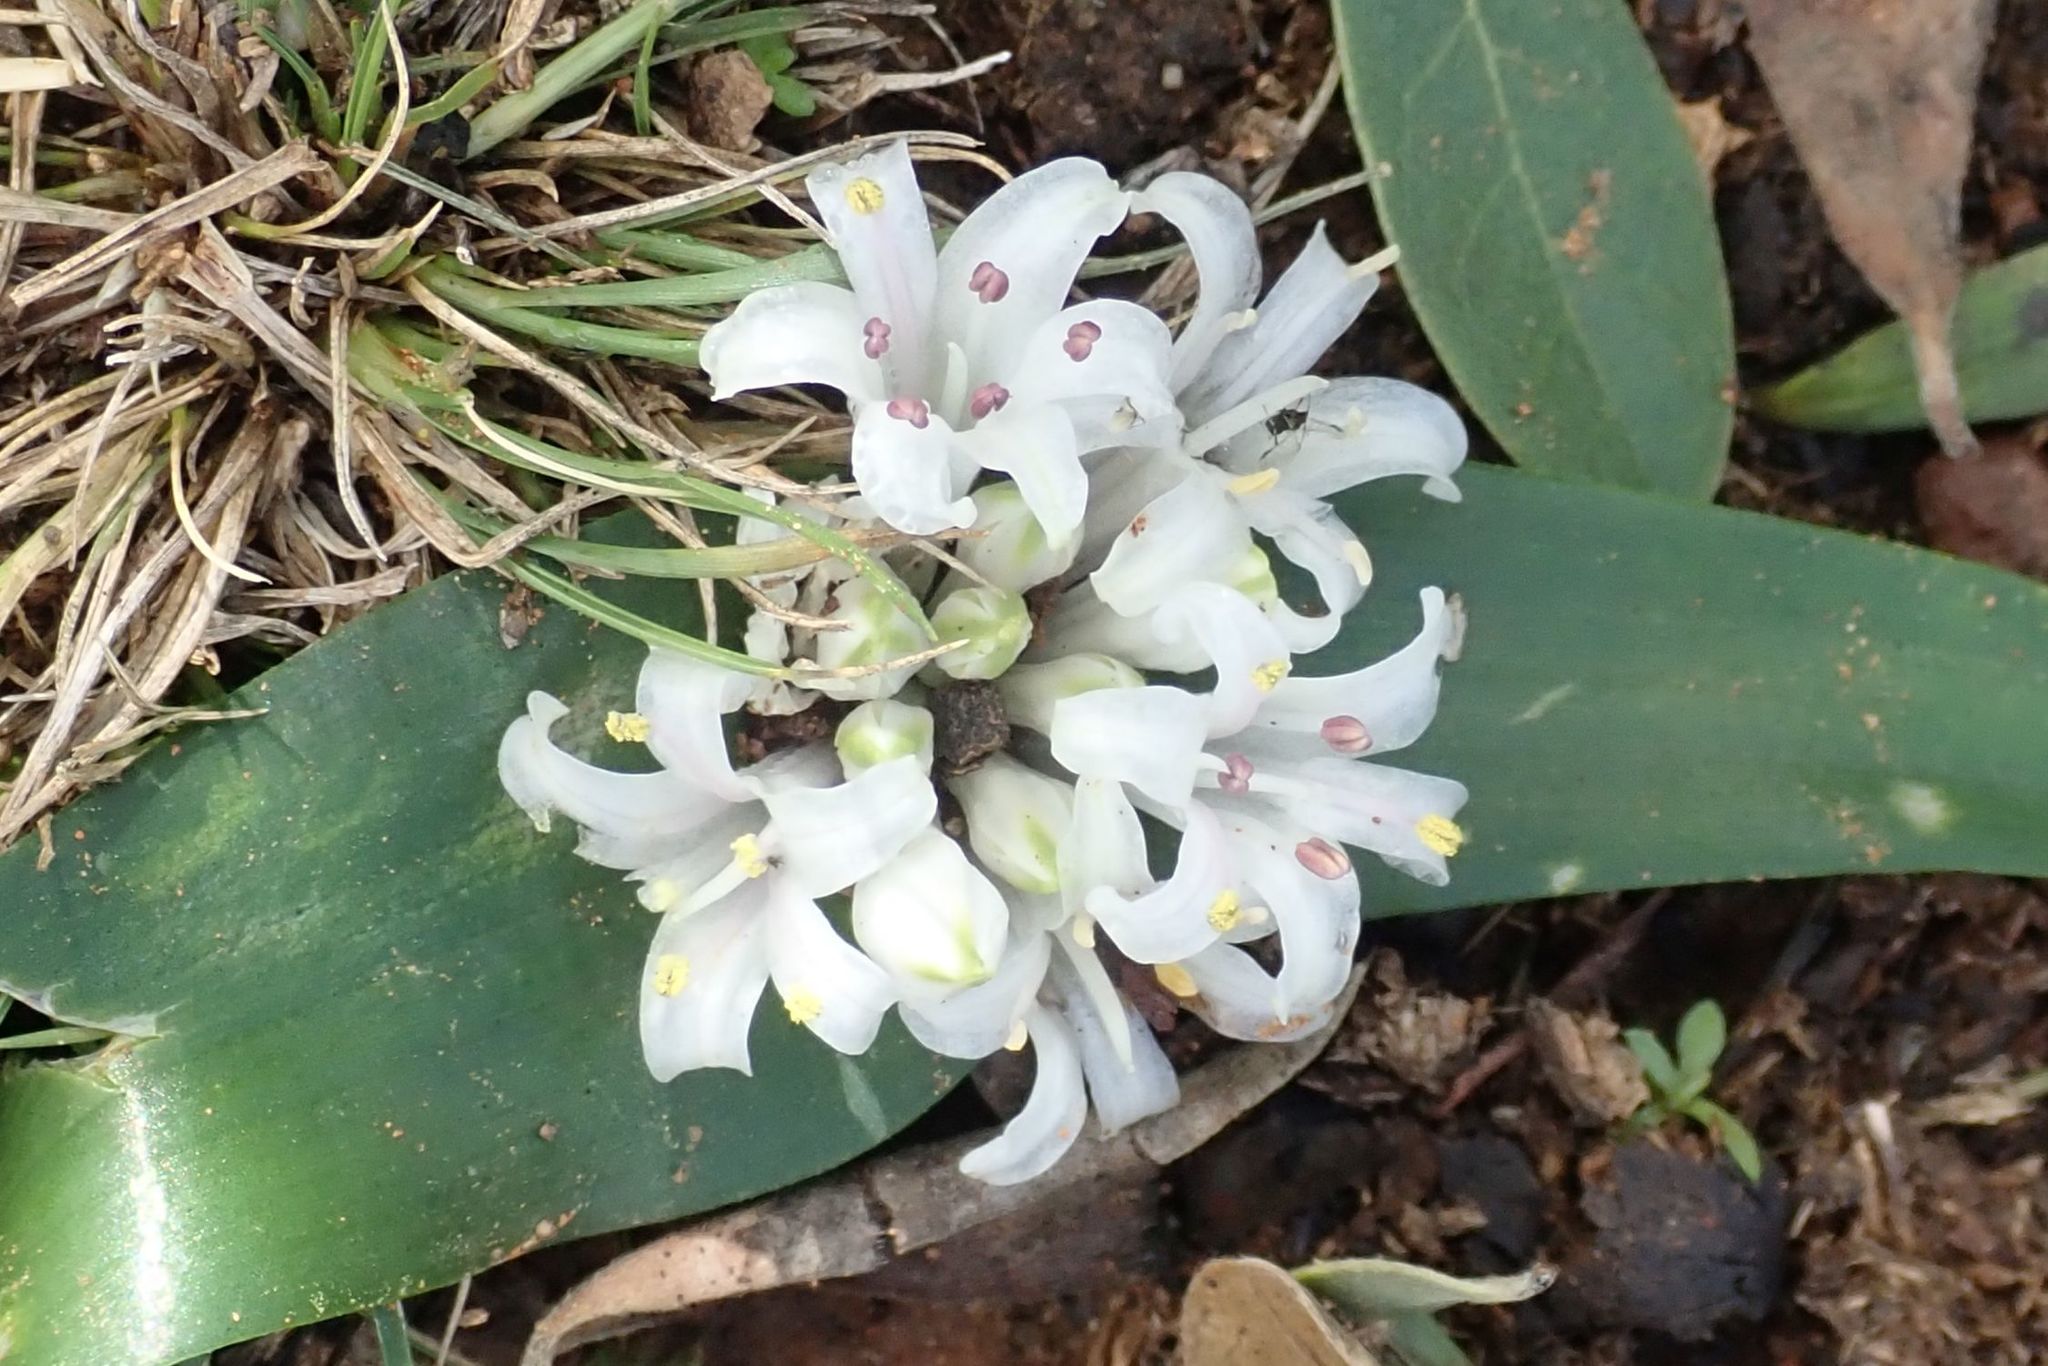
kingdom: Plantae
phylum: Tracheophyta
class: Liliopsida
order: Asparagales
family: Asparagaceae
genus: Lachenalia
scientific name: Lachenalia ensifolia
